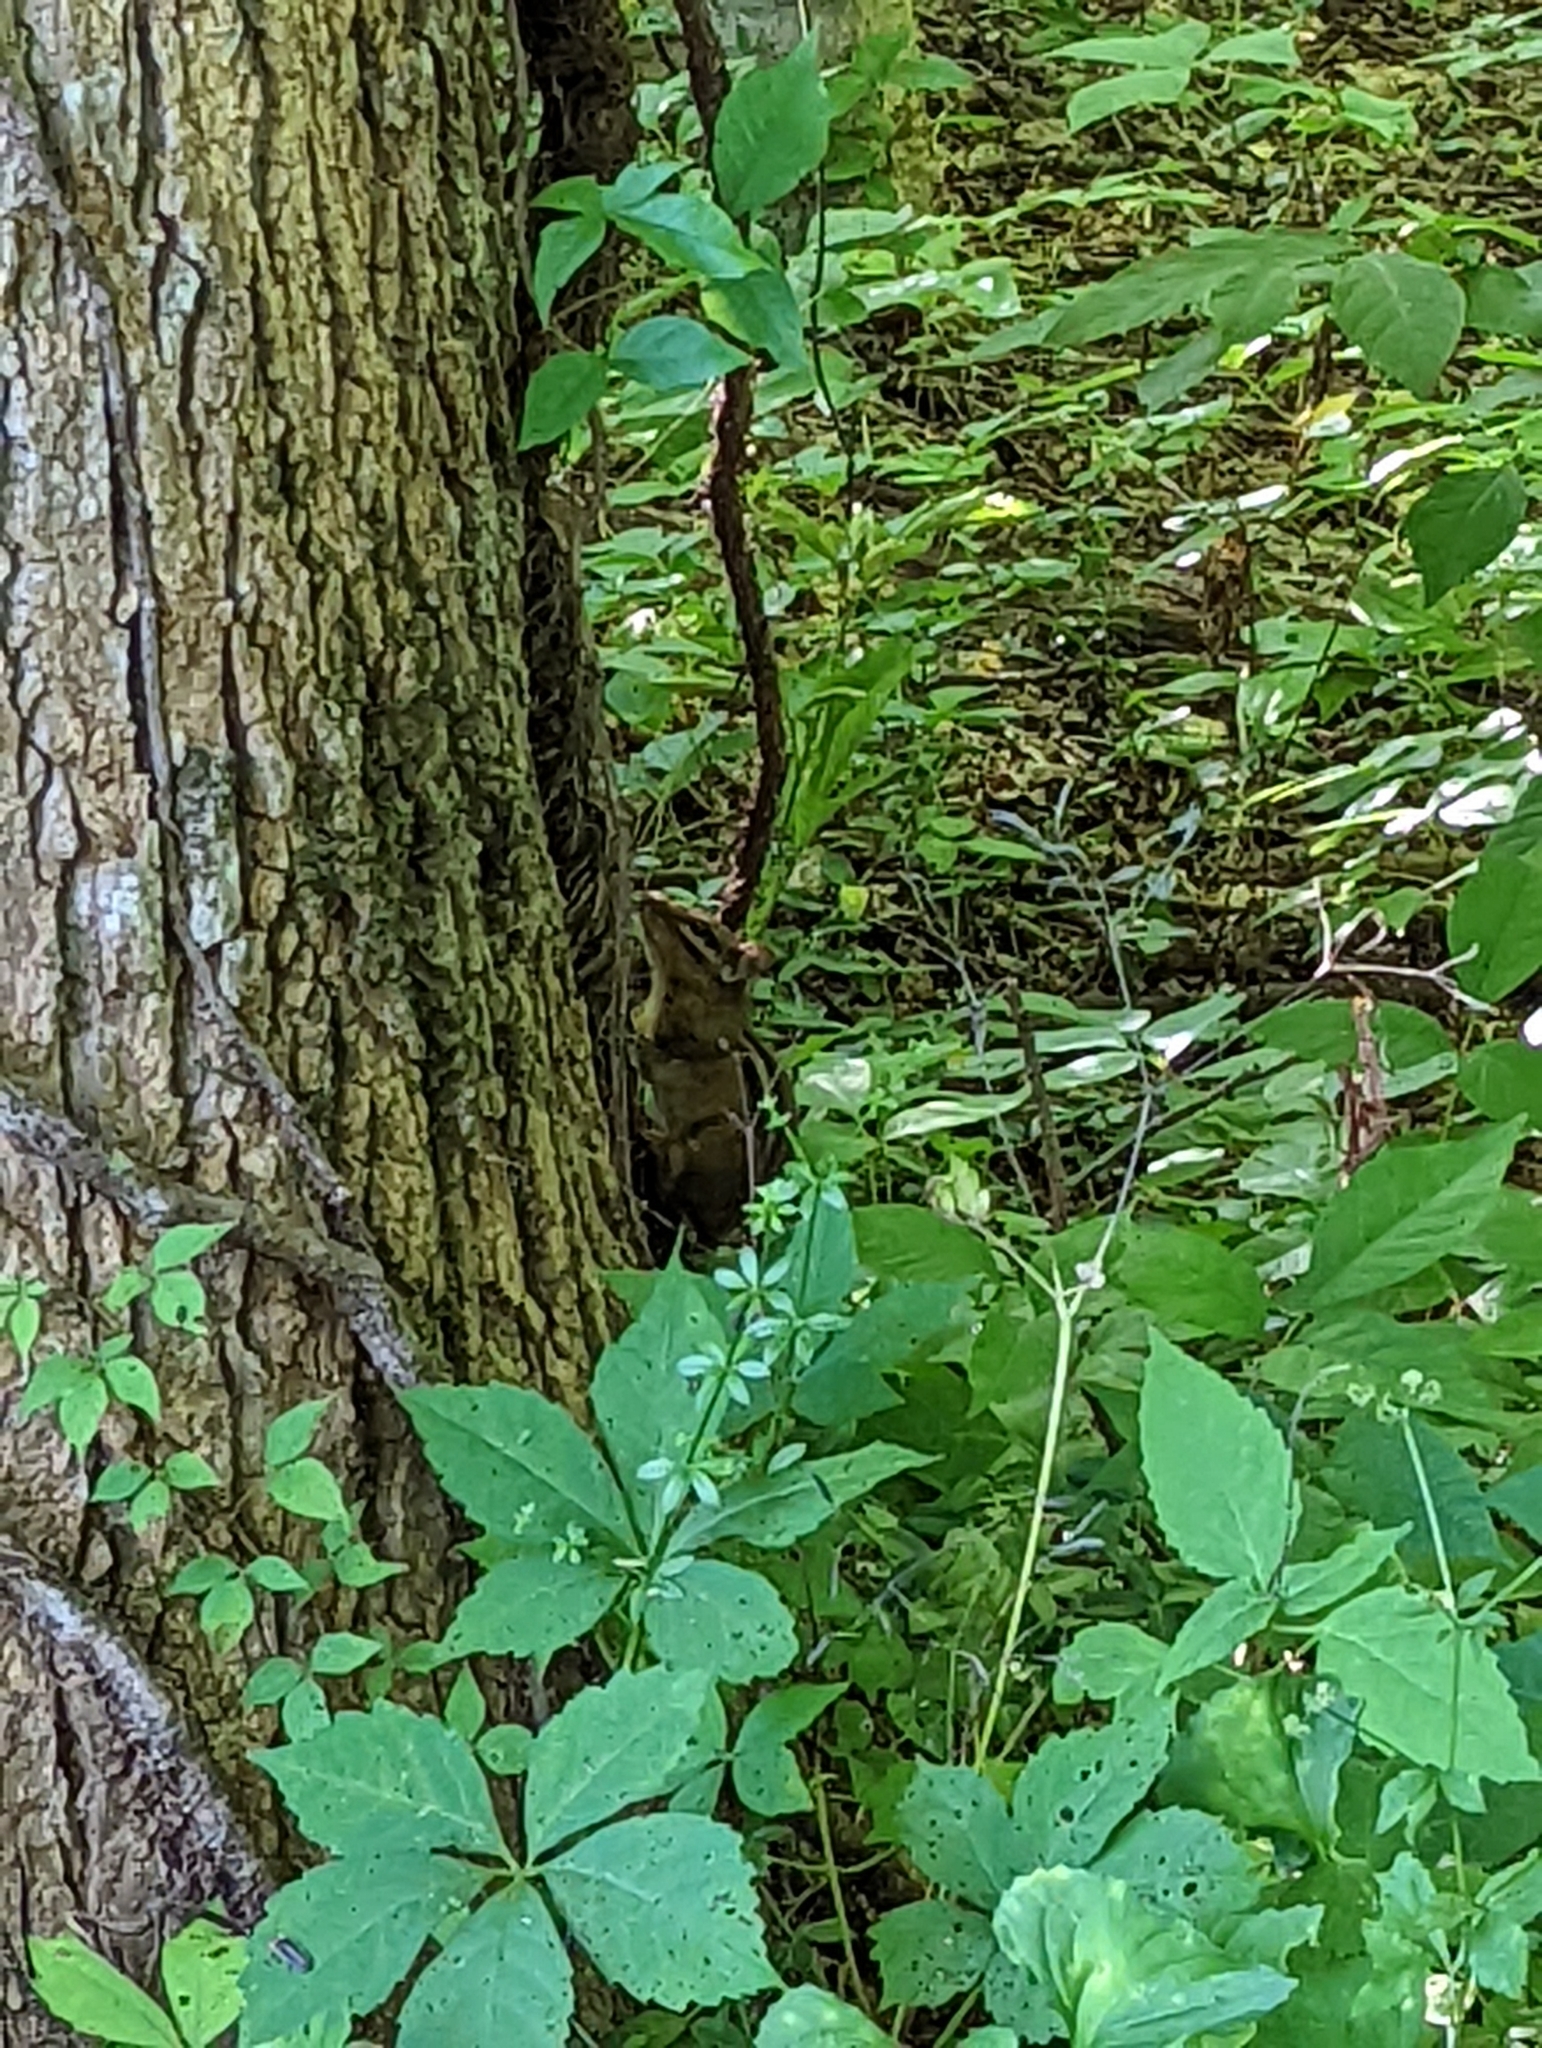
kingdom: Animalia
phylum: Chordata
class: Mammalia
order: Rodentia
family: Sciuridae
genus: Tamias
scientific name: Tamias striatus
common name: Eastern chipmunk
